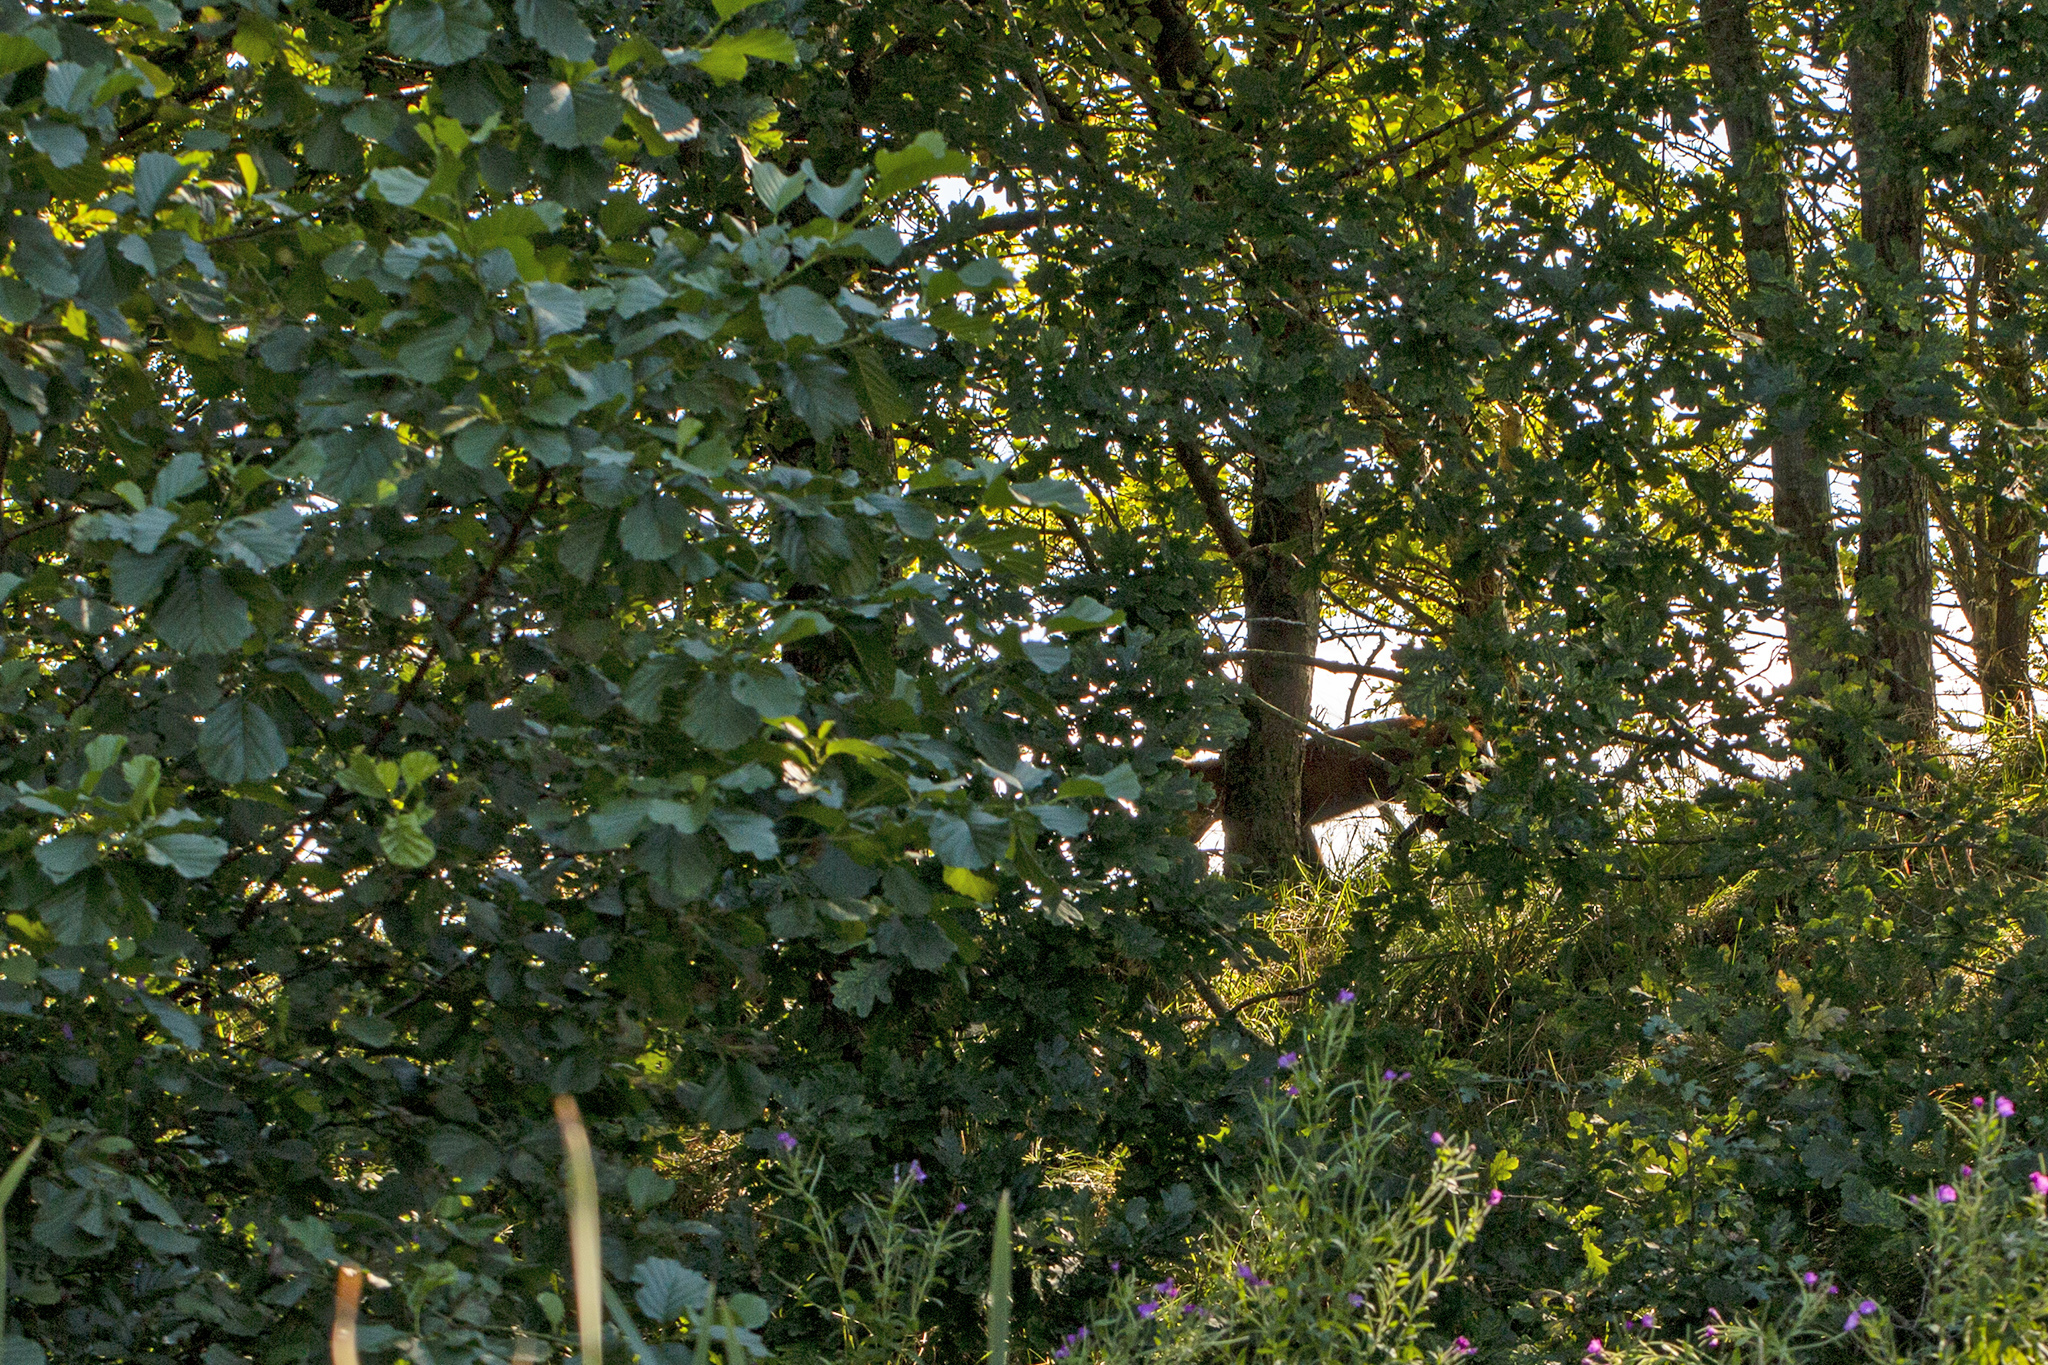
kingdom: Animalia
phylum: Chordata
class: Mammalia
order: Carnivora
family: Canidae
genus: Vulpes
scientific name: Vulpes vulpes
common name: Red fox
